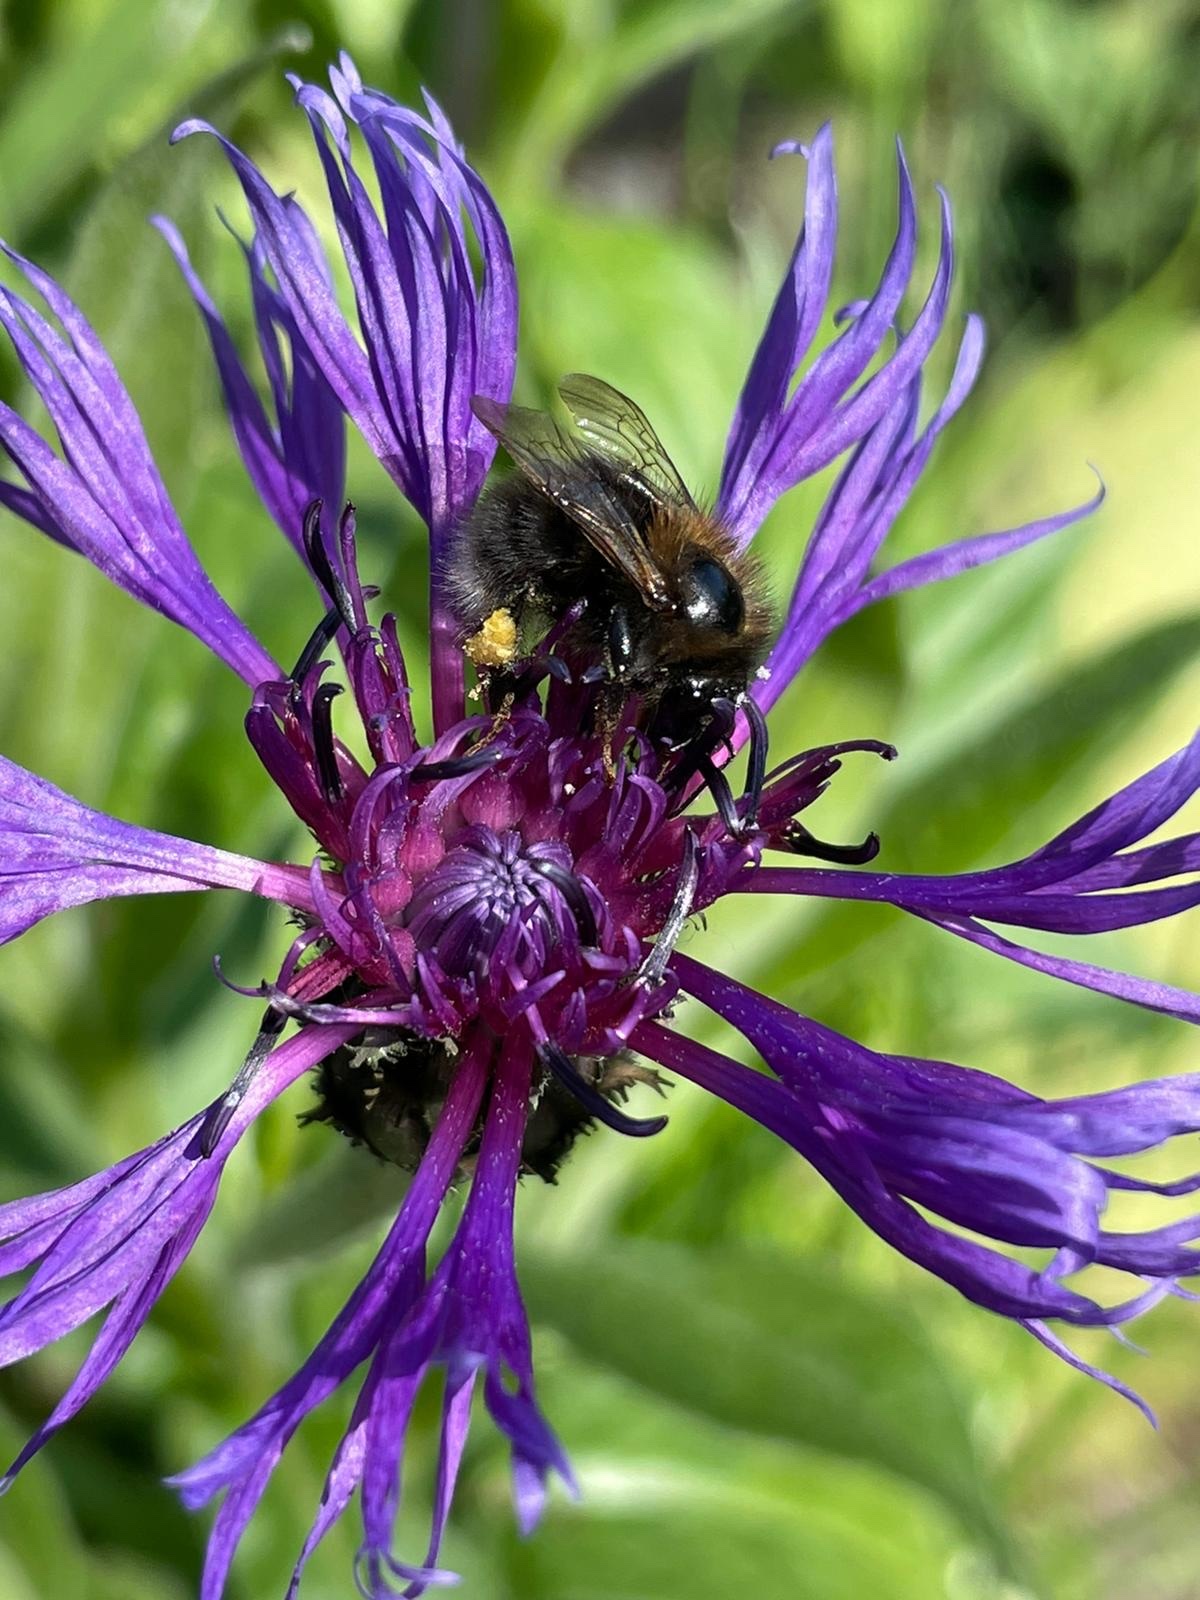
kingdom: Animalia
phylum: Arthropoda
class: Insecta
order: Hymenoptera
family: Apidae
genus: Bombus
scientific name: Bombus hypnorum
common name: New garden bumblebee
